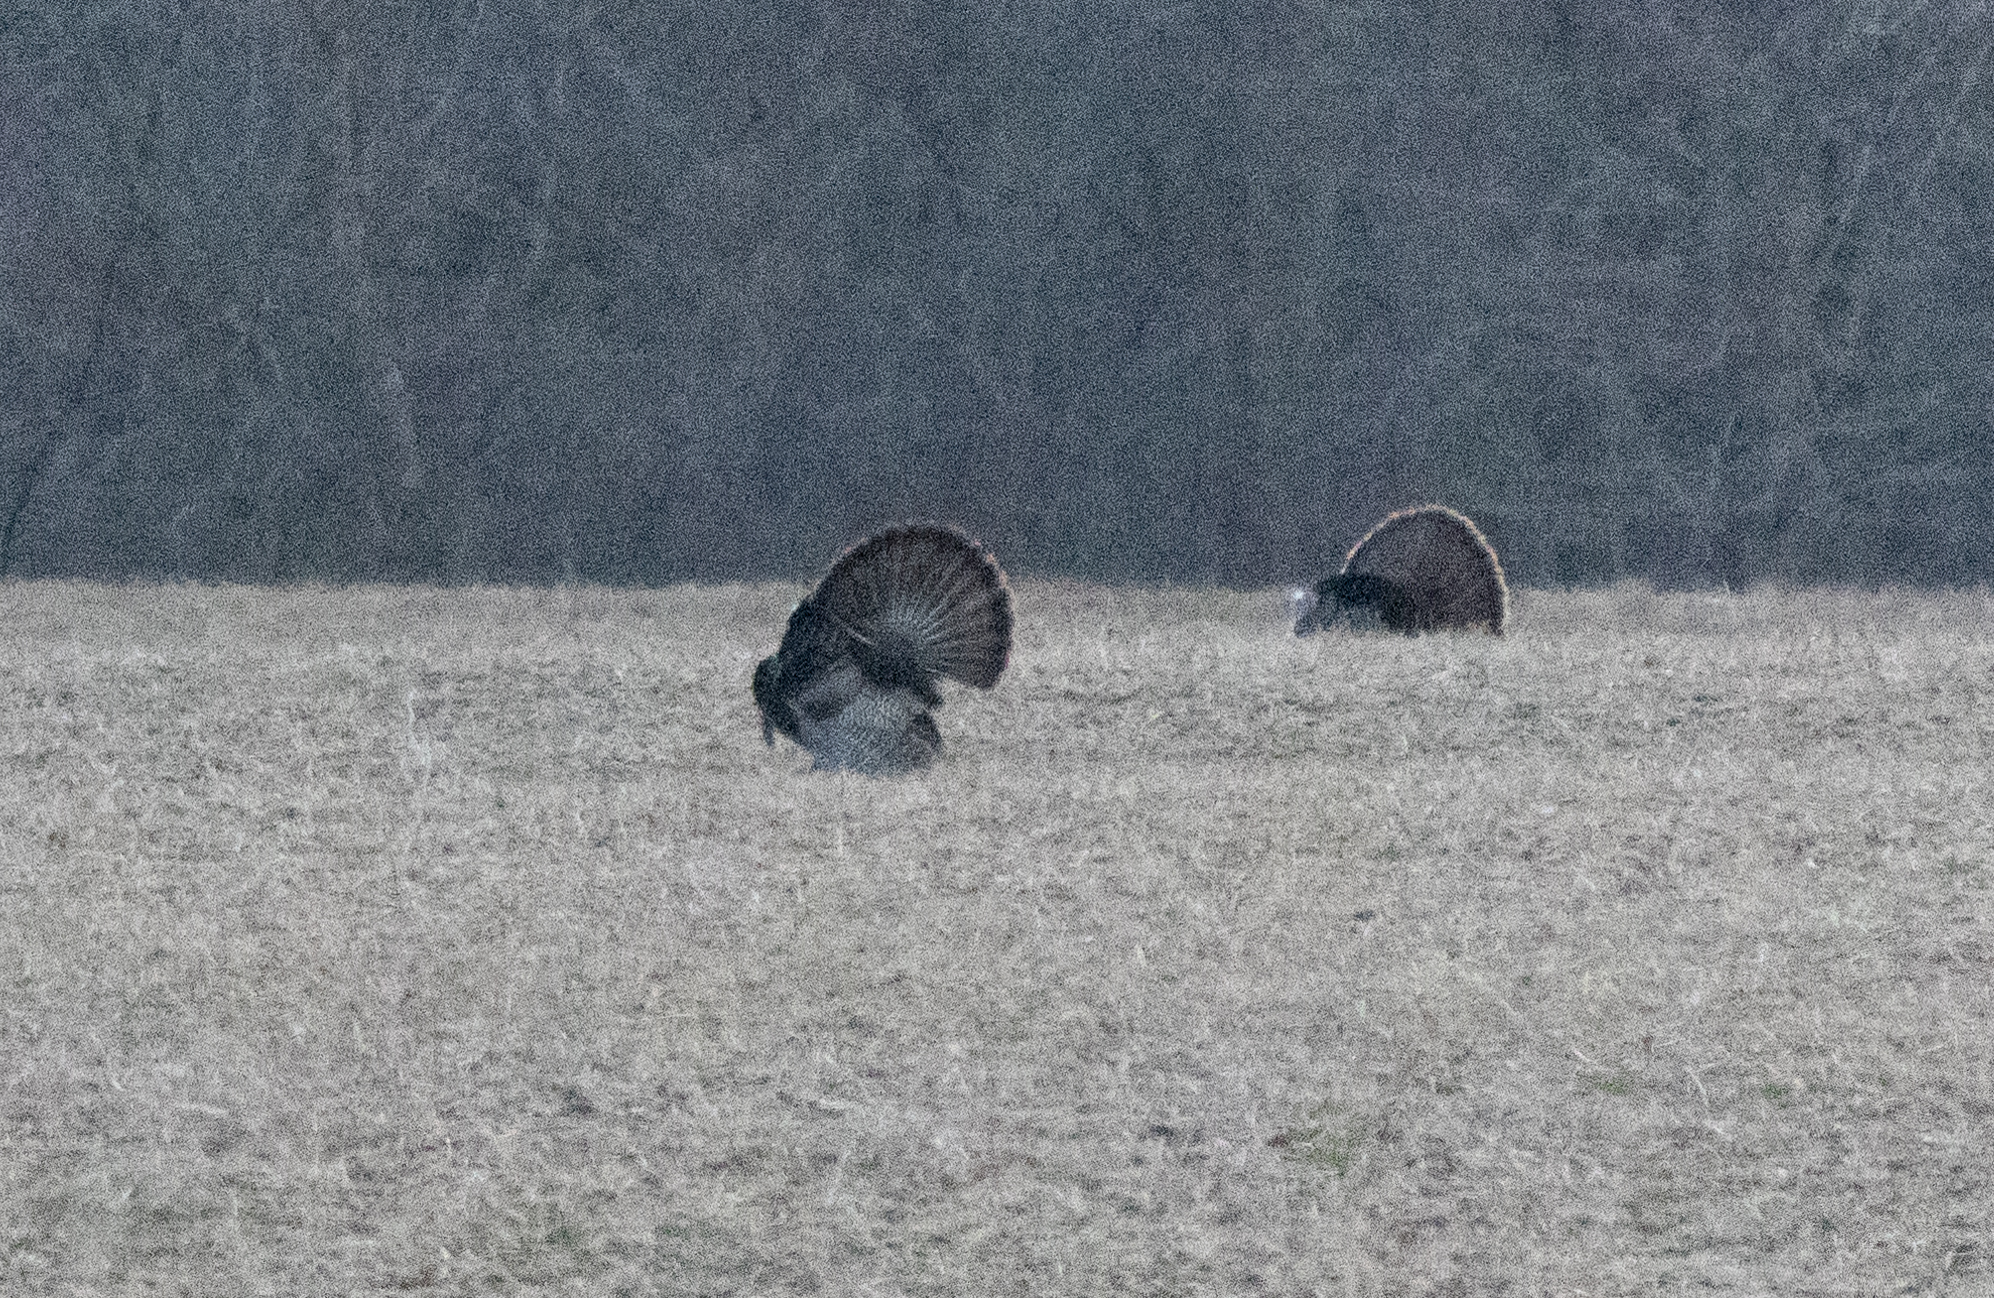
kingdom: Animalia
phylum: Chordata
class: Aves
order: Galliformes
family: Phasianidae
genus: Meleagris
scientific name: Meleagris gallopavo
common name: Wild turkey
